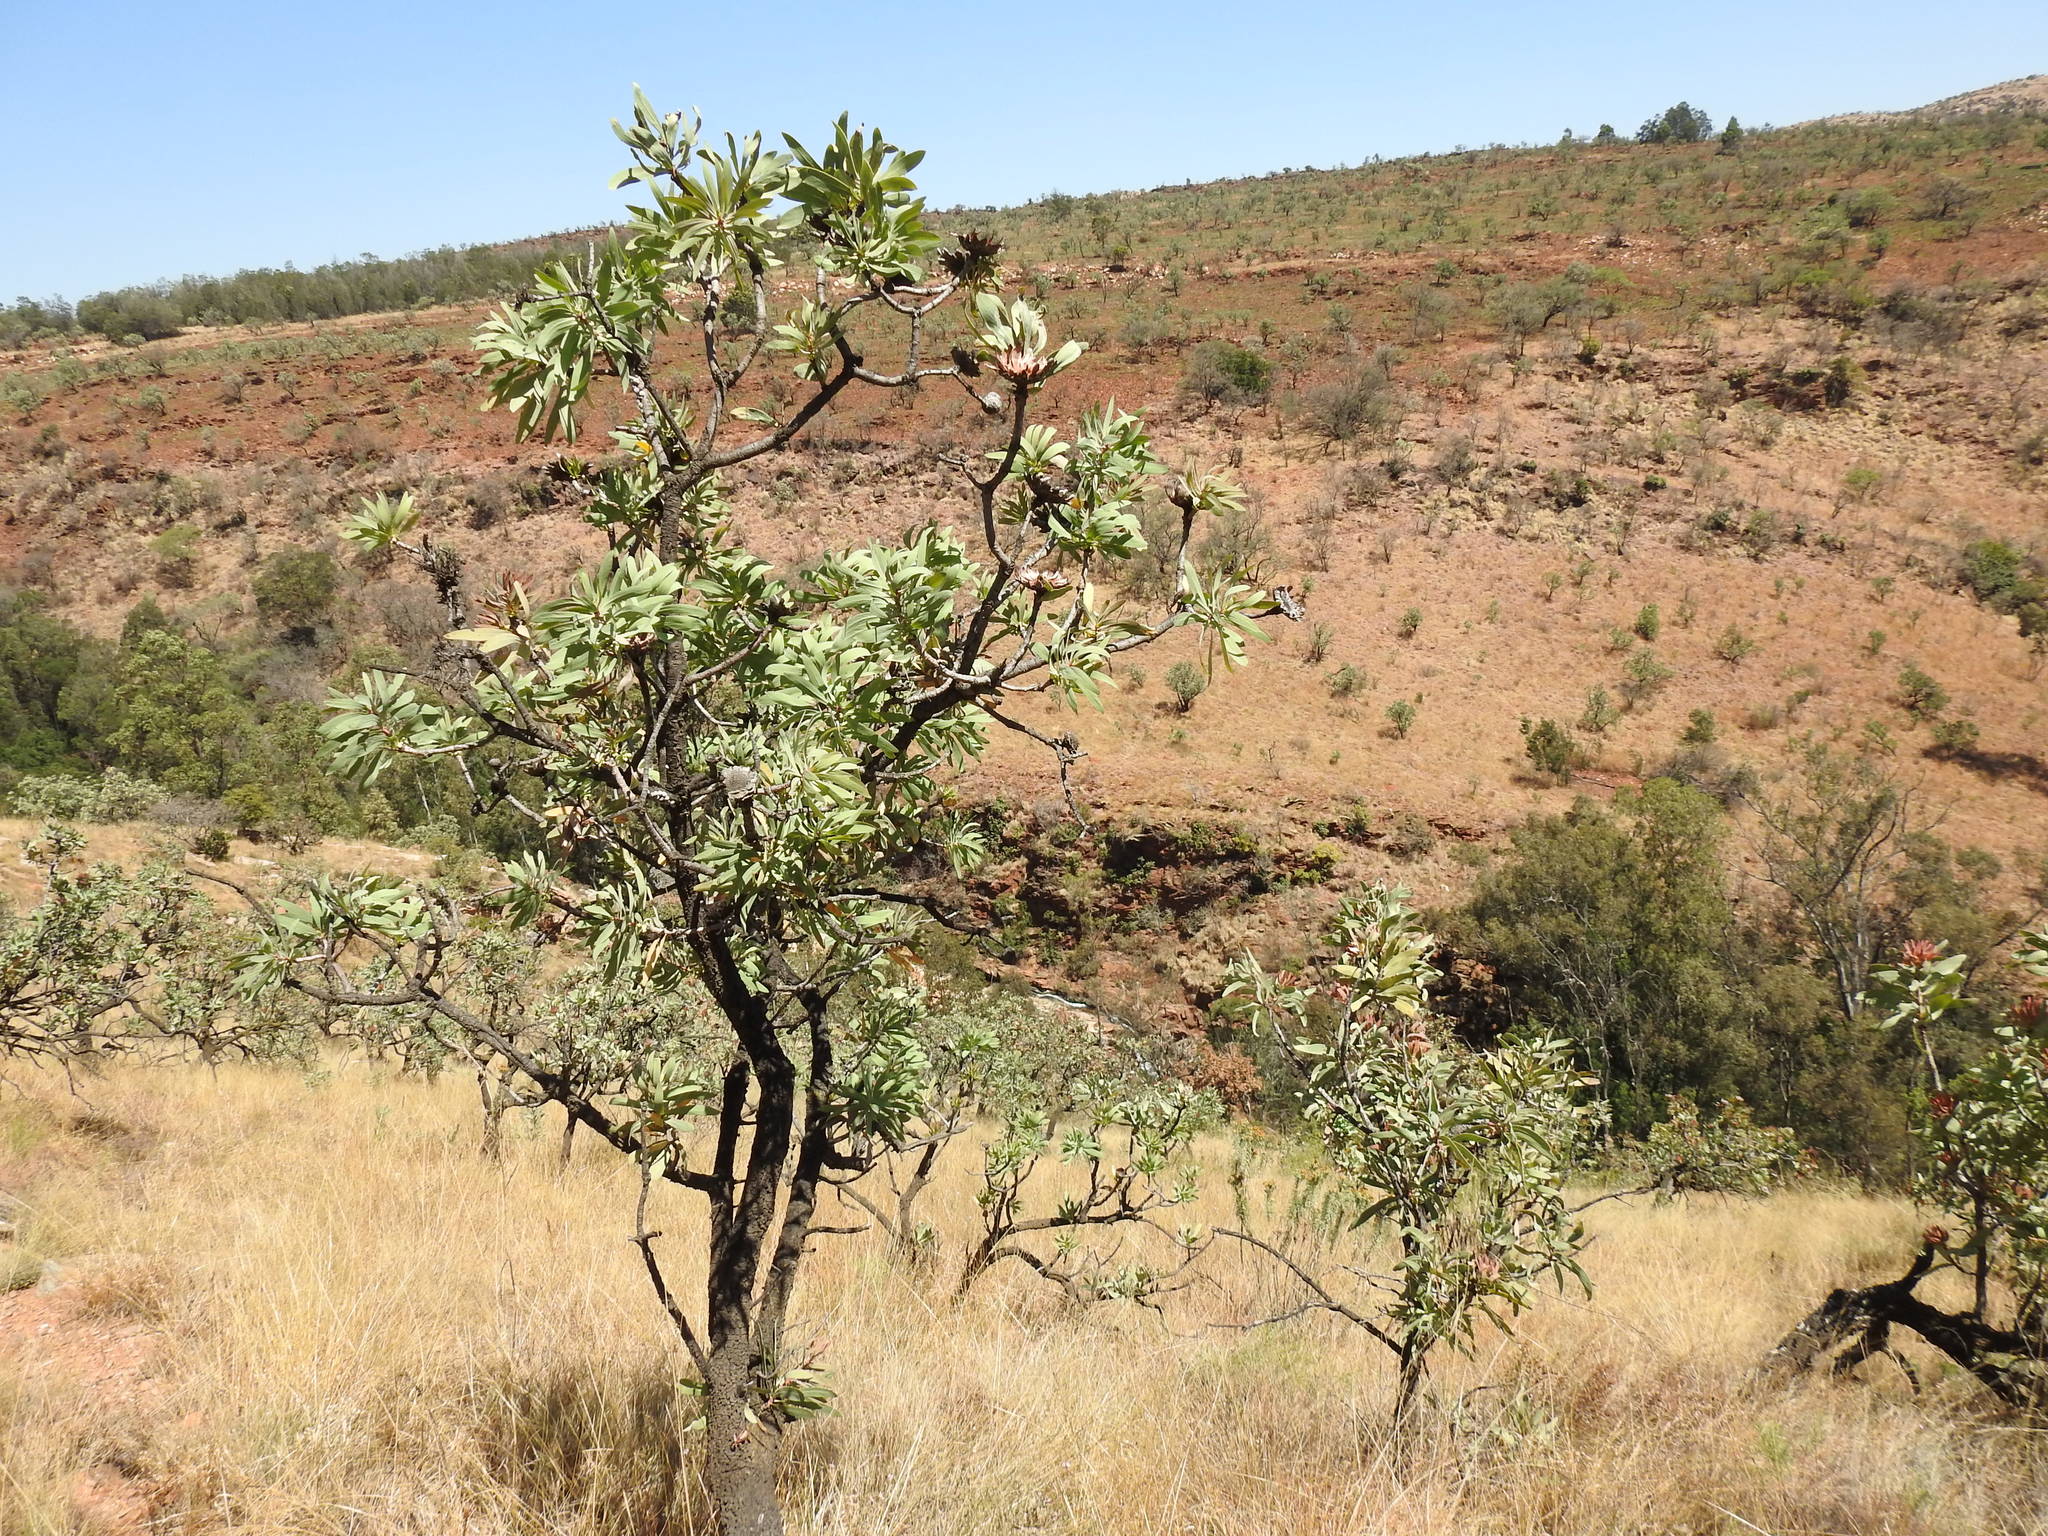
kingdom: Plantae
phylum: Tracheophyta
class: Magnoliopsida
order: Proteales
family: Proteaceae
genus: Protea
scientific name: Protea caffra
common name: Common sugarbush
